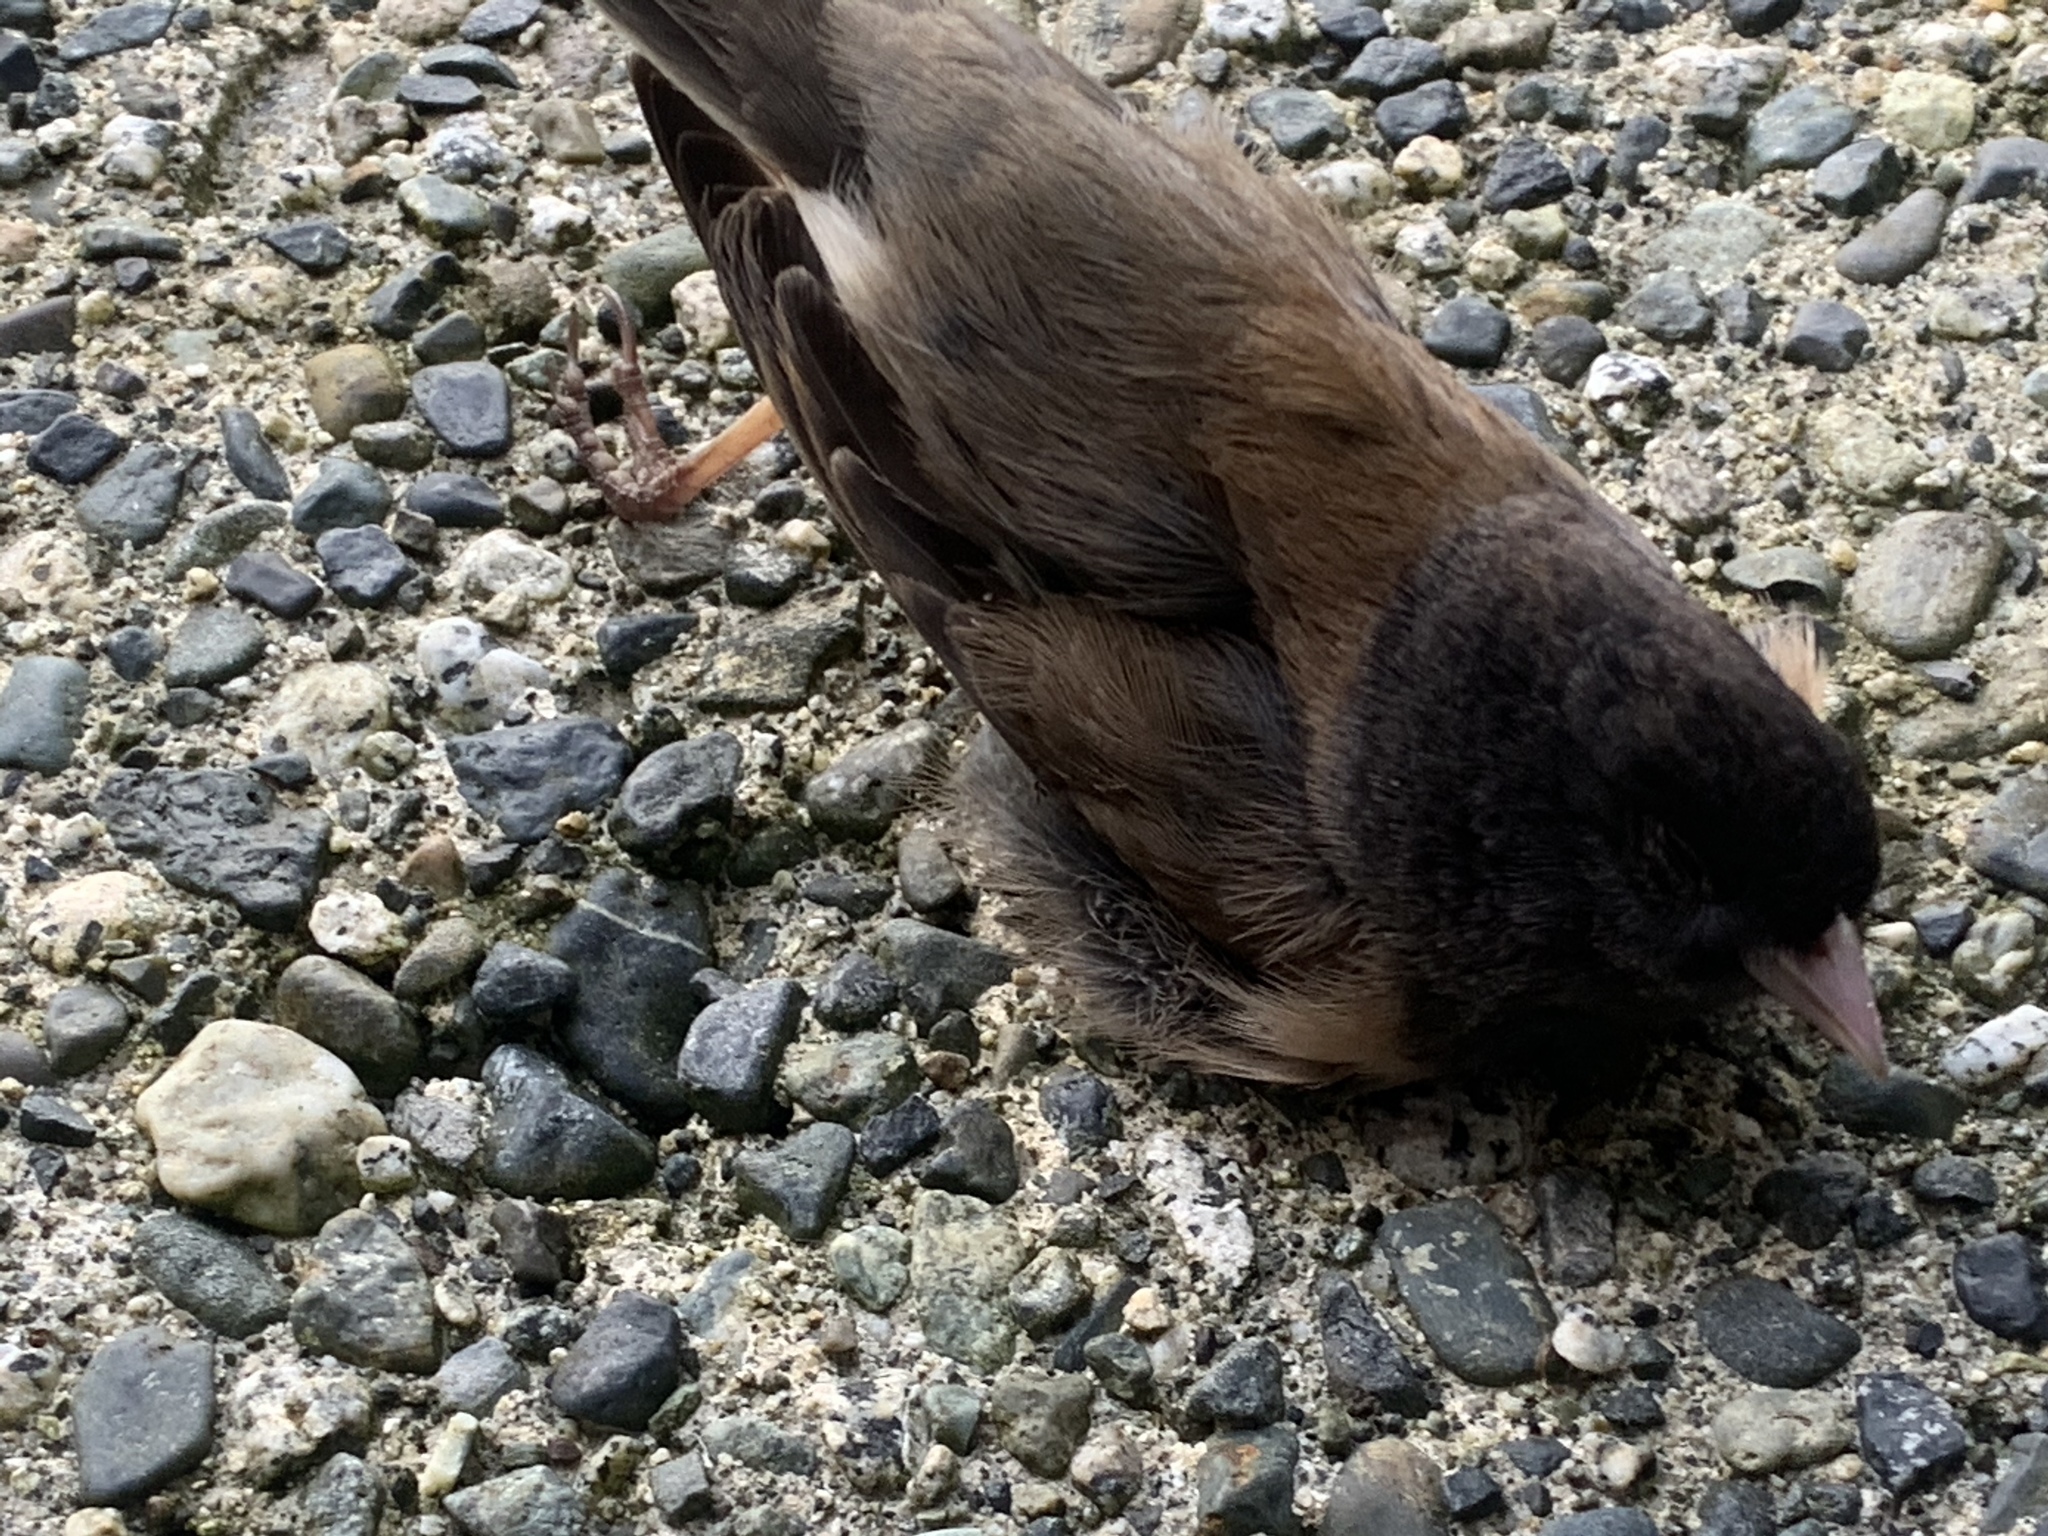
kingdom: Animalia
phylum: Chordata
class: Aves
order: Passeriformes
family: Passerellidae
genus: Junco
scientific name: Junco hyemalis
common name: Dark-eyed junco
